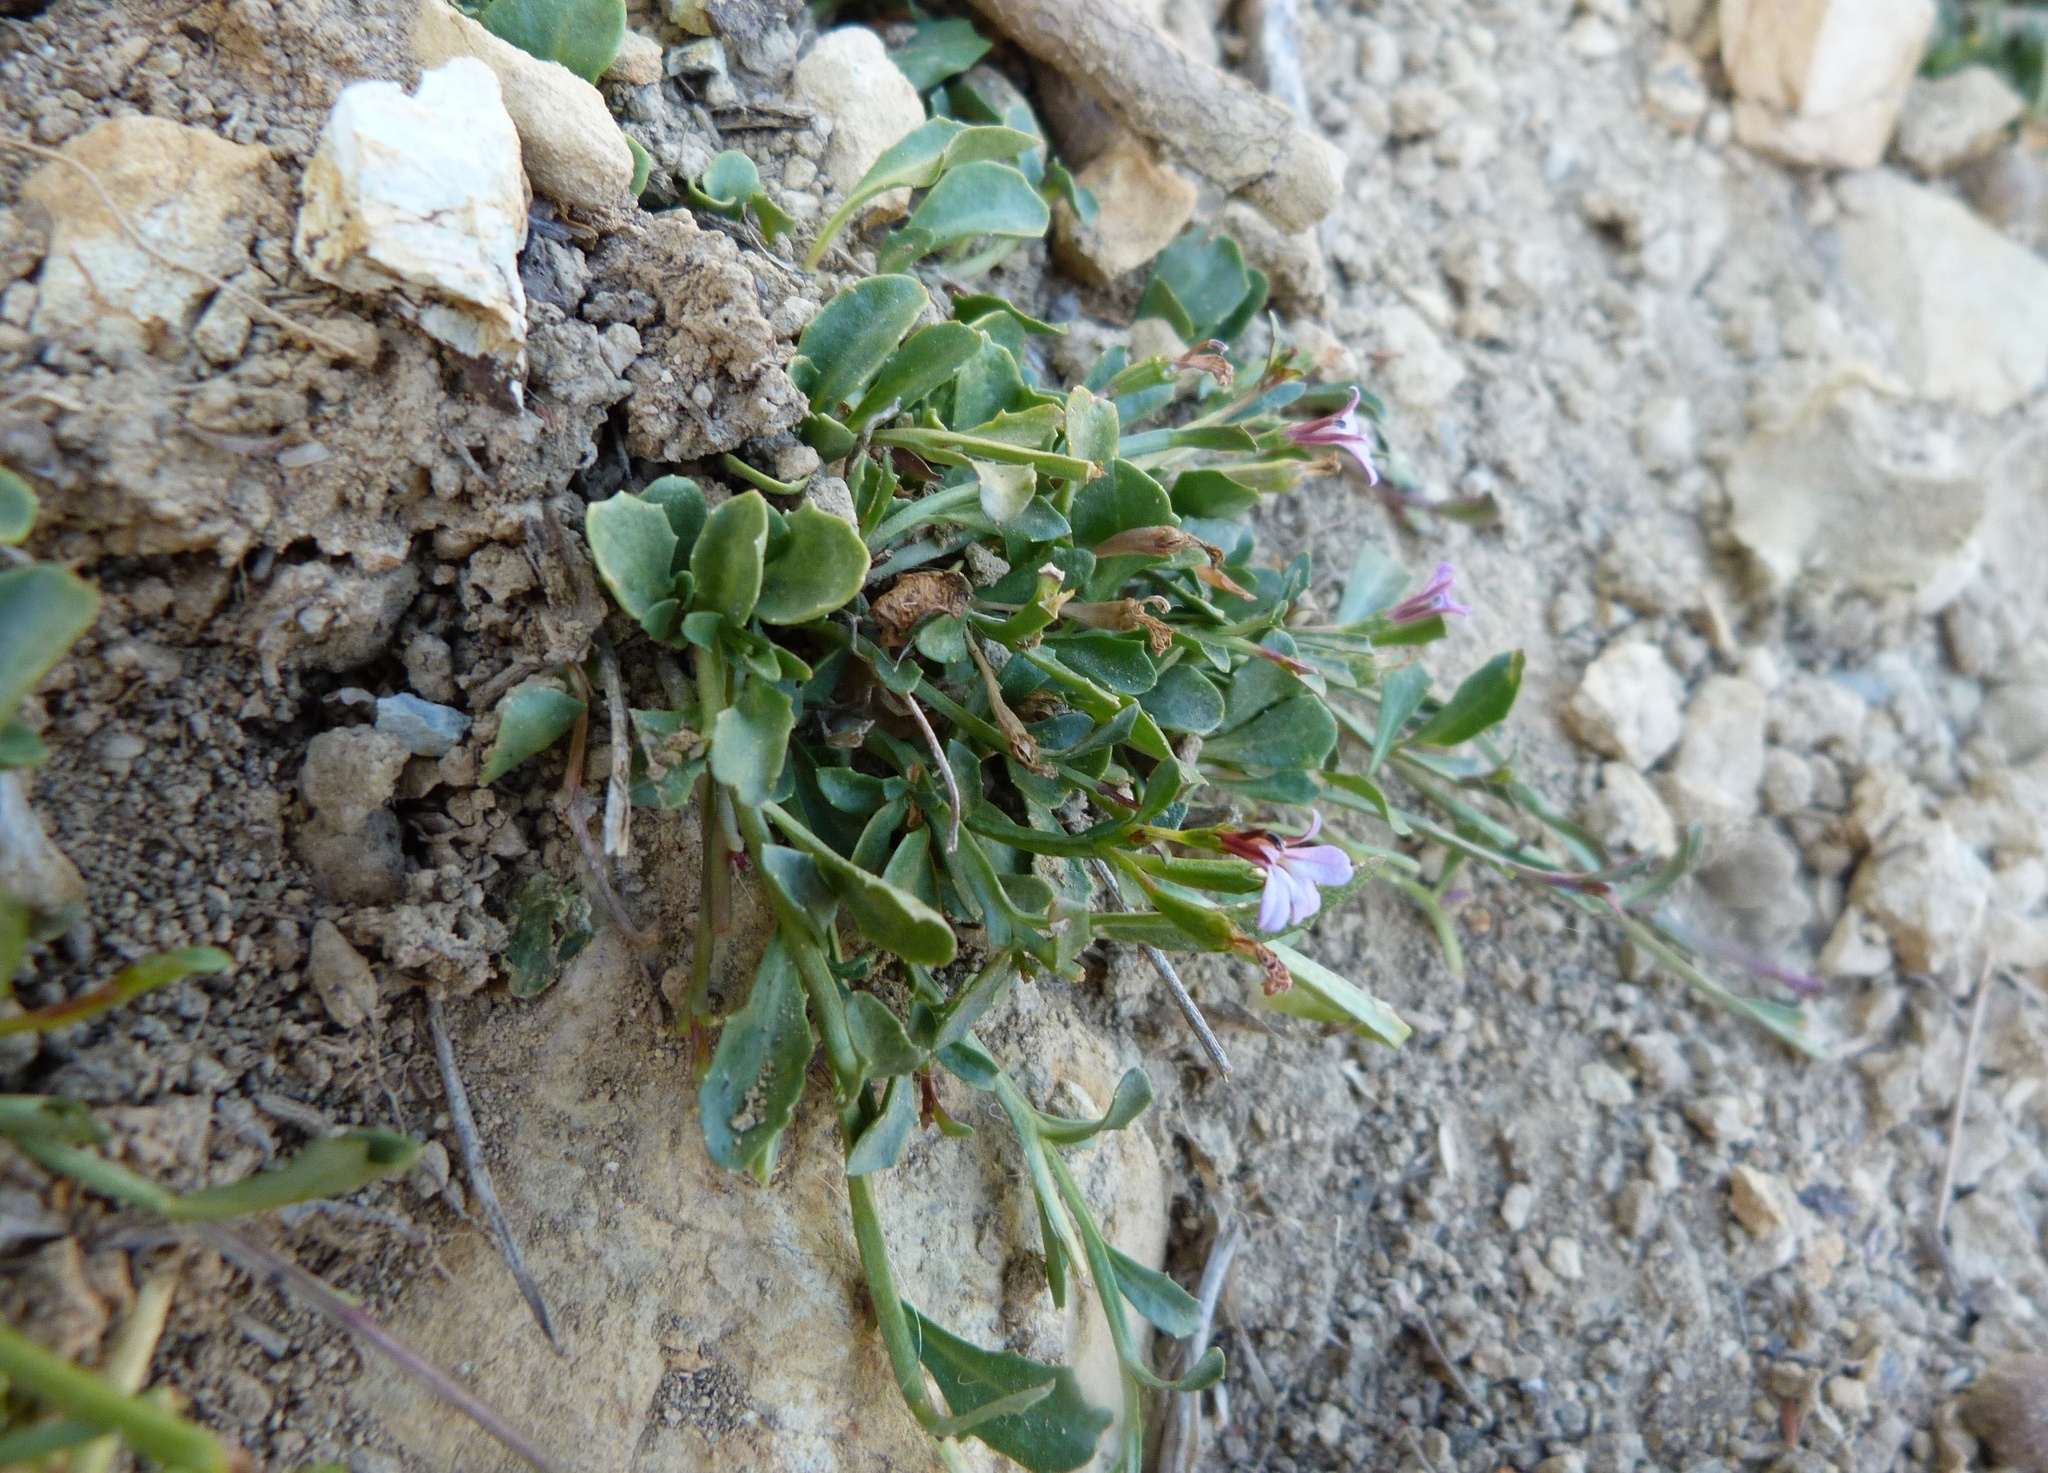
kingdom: Plantae
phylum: Tracheophyta
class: Magnoliopsida
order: Asterales
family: Campanulaceae
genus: Lobelia
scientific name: Lobelia anceps
